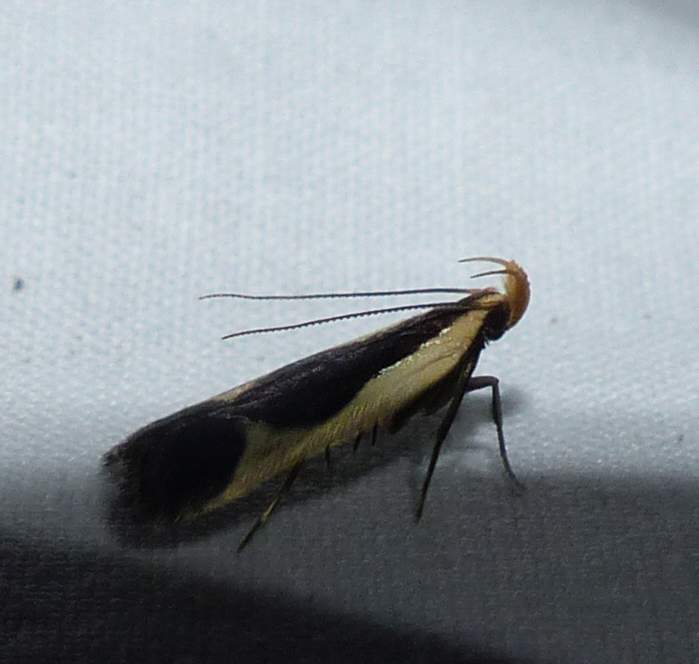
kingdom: Animalia
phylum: Arthropoda
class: Insecta
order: Lepidoptera
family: Gelechiidae
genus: Dichomeris
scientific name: Dichomeris flavocostella
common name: Cream-edged dichomeris moth
